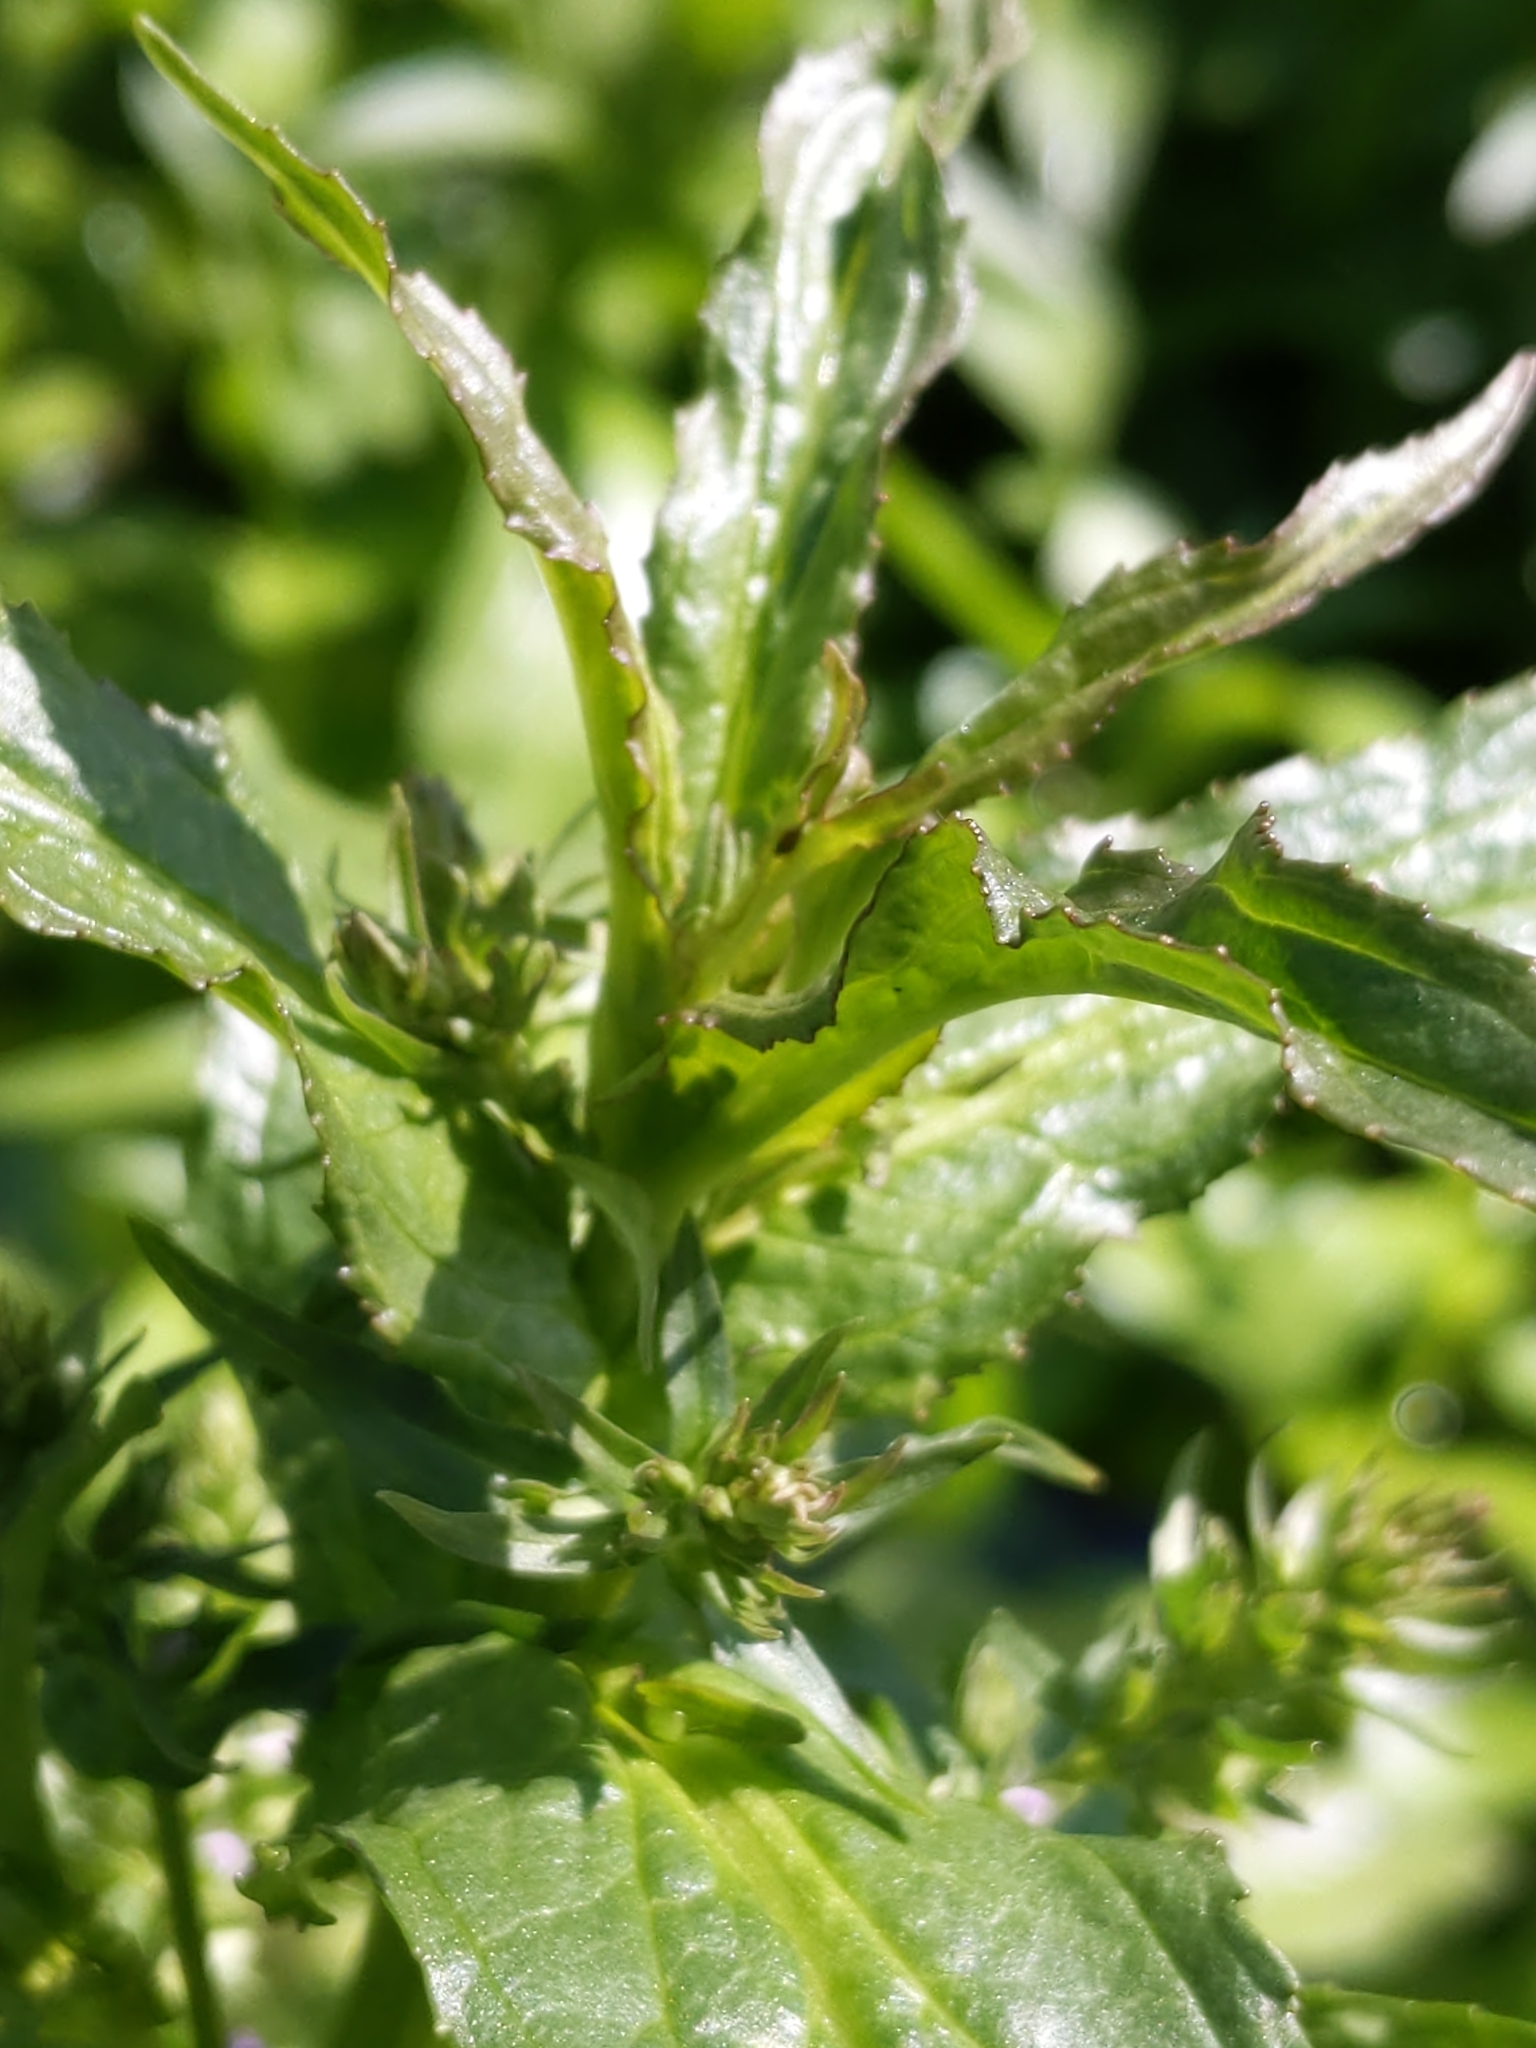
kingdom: Plantae
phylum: Tracheophyta
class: Magnoliopsida
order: Lamiales
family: Plantaginaceae
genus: Veronica
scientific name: Veronica anagallis-aquatica
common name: Water speedwell
